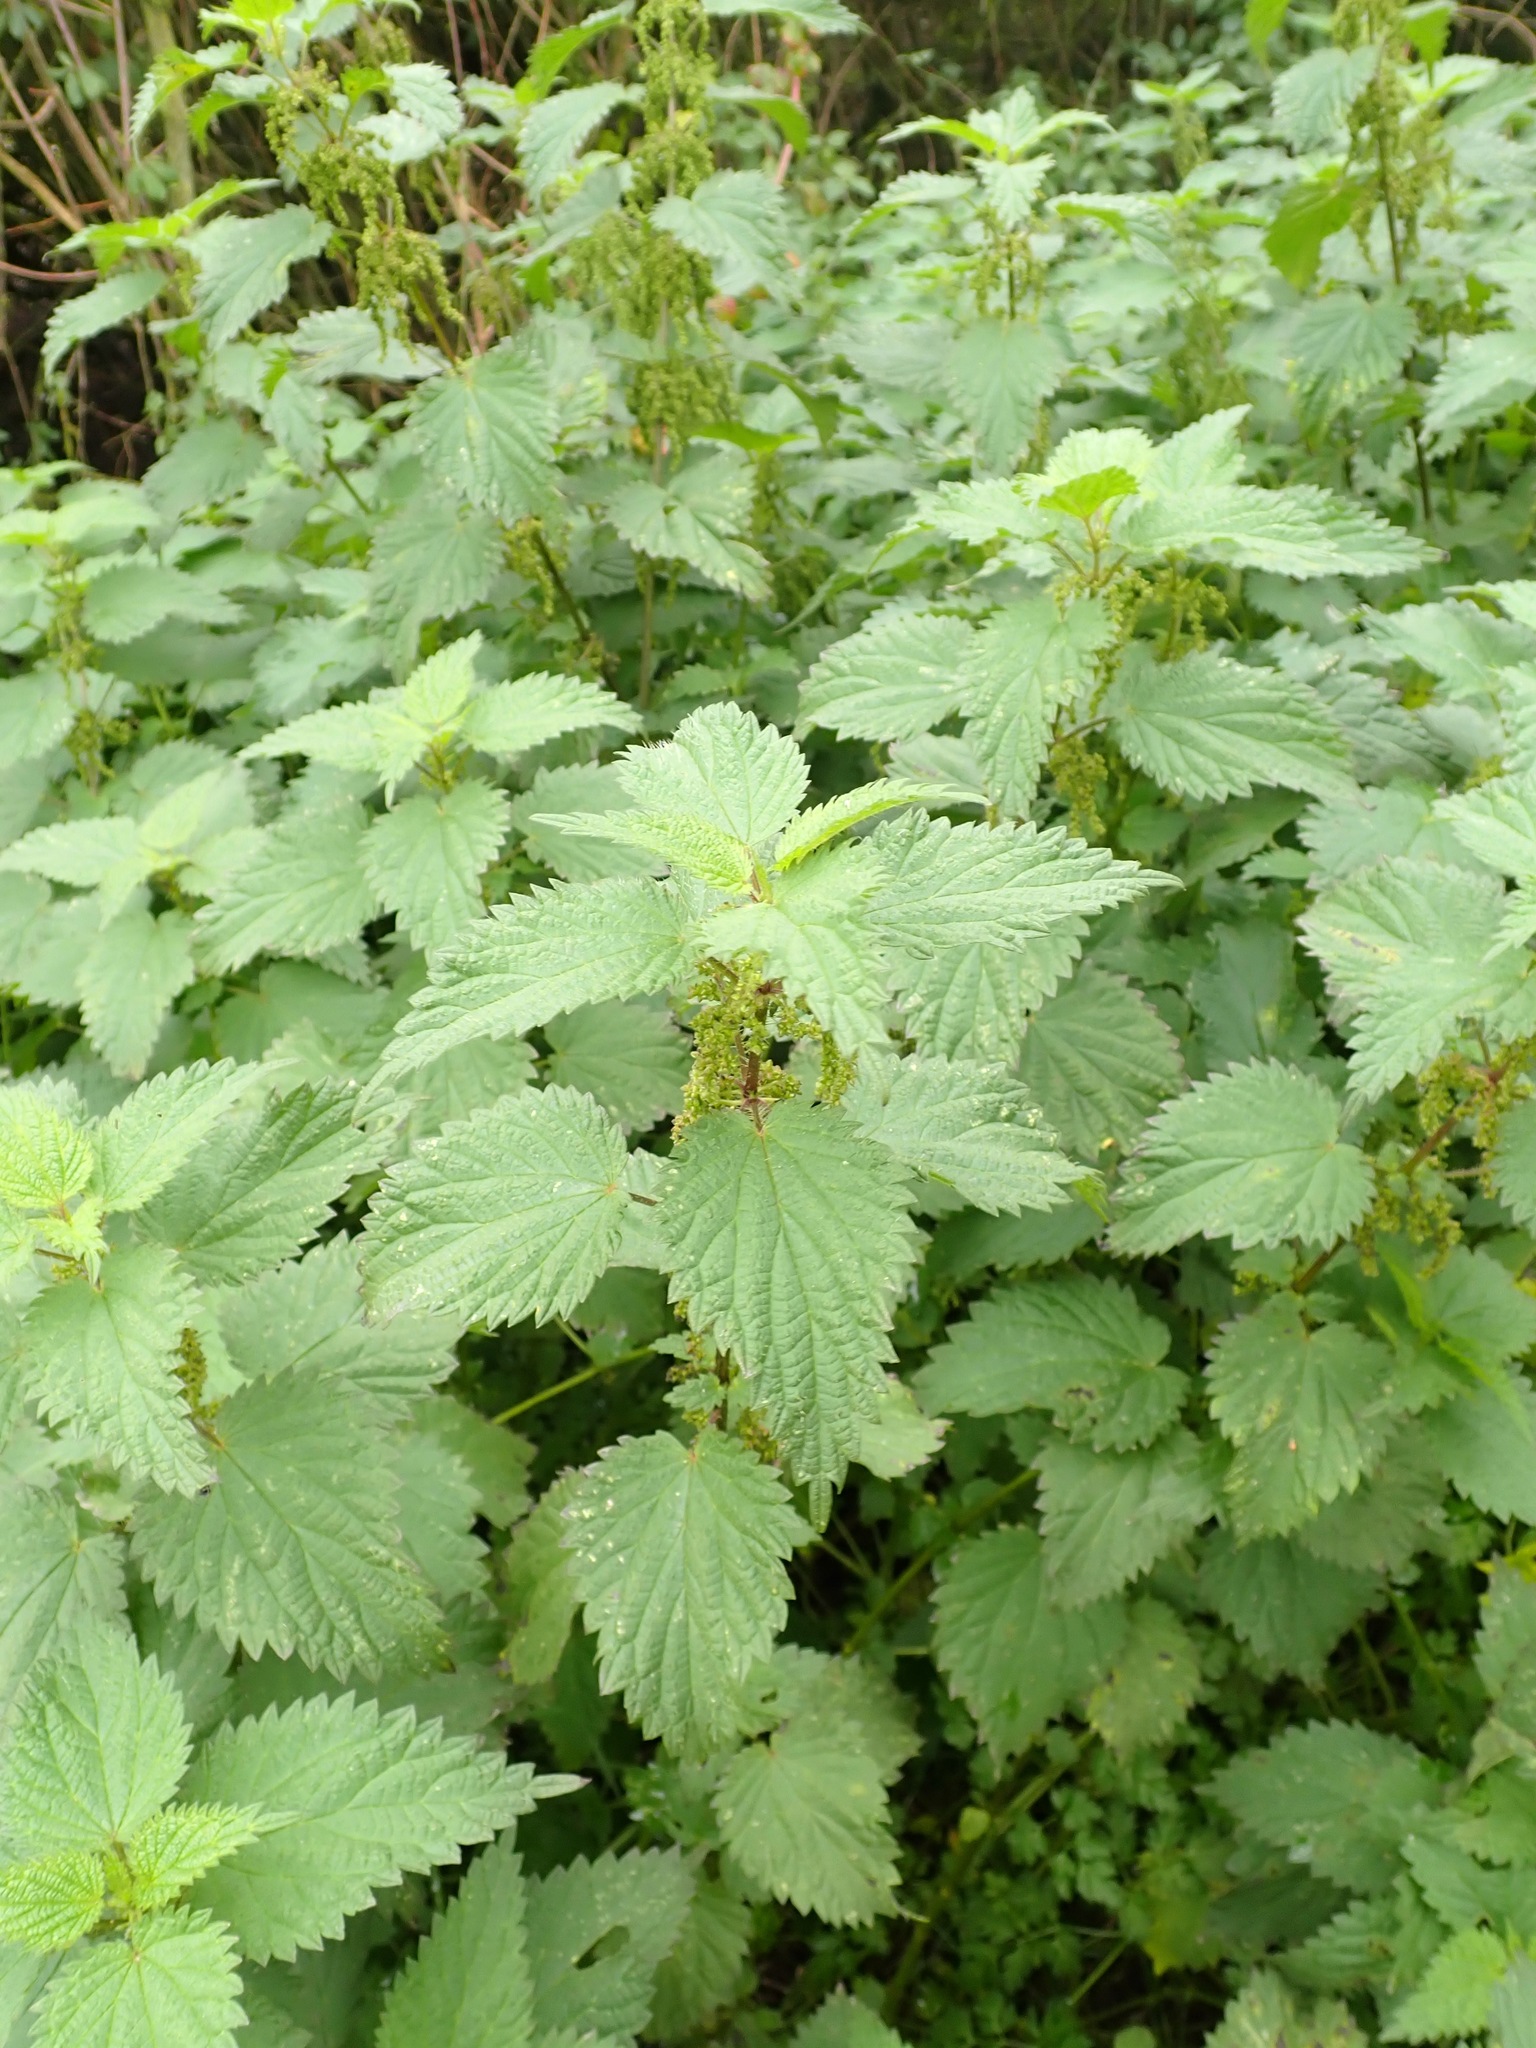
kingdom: Plantae
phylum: Tracheophyta
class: Magnoliopsida
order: Rosales
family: Urticaceae
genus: Urtica
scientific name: Urtica dioica
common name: Common nettle
